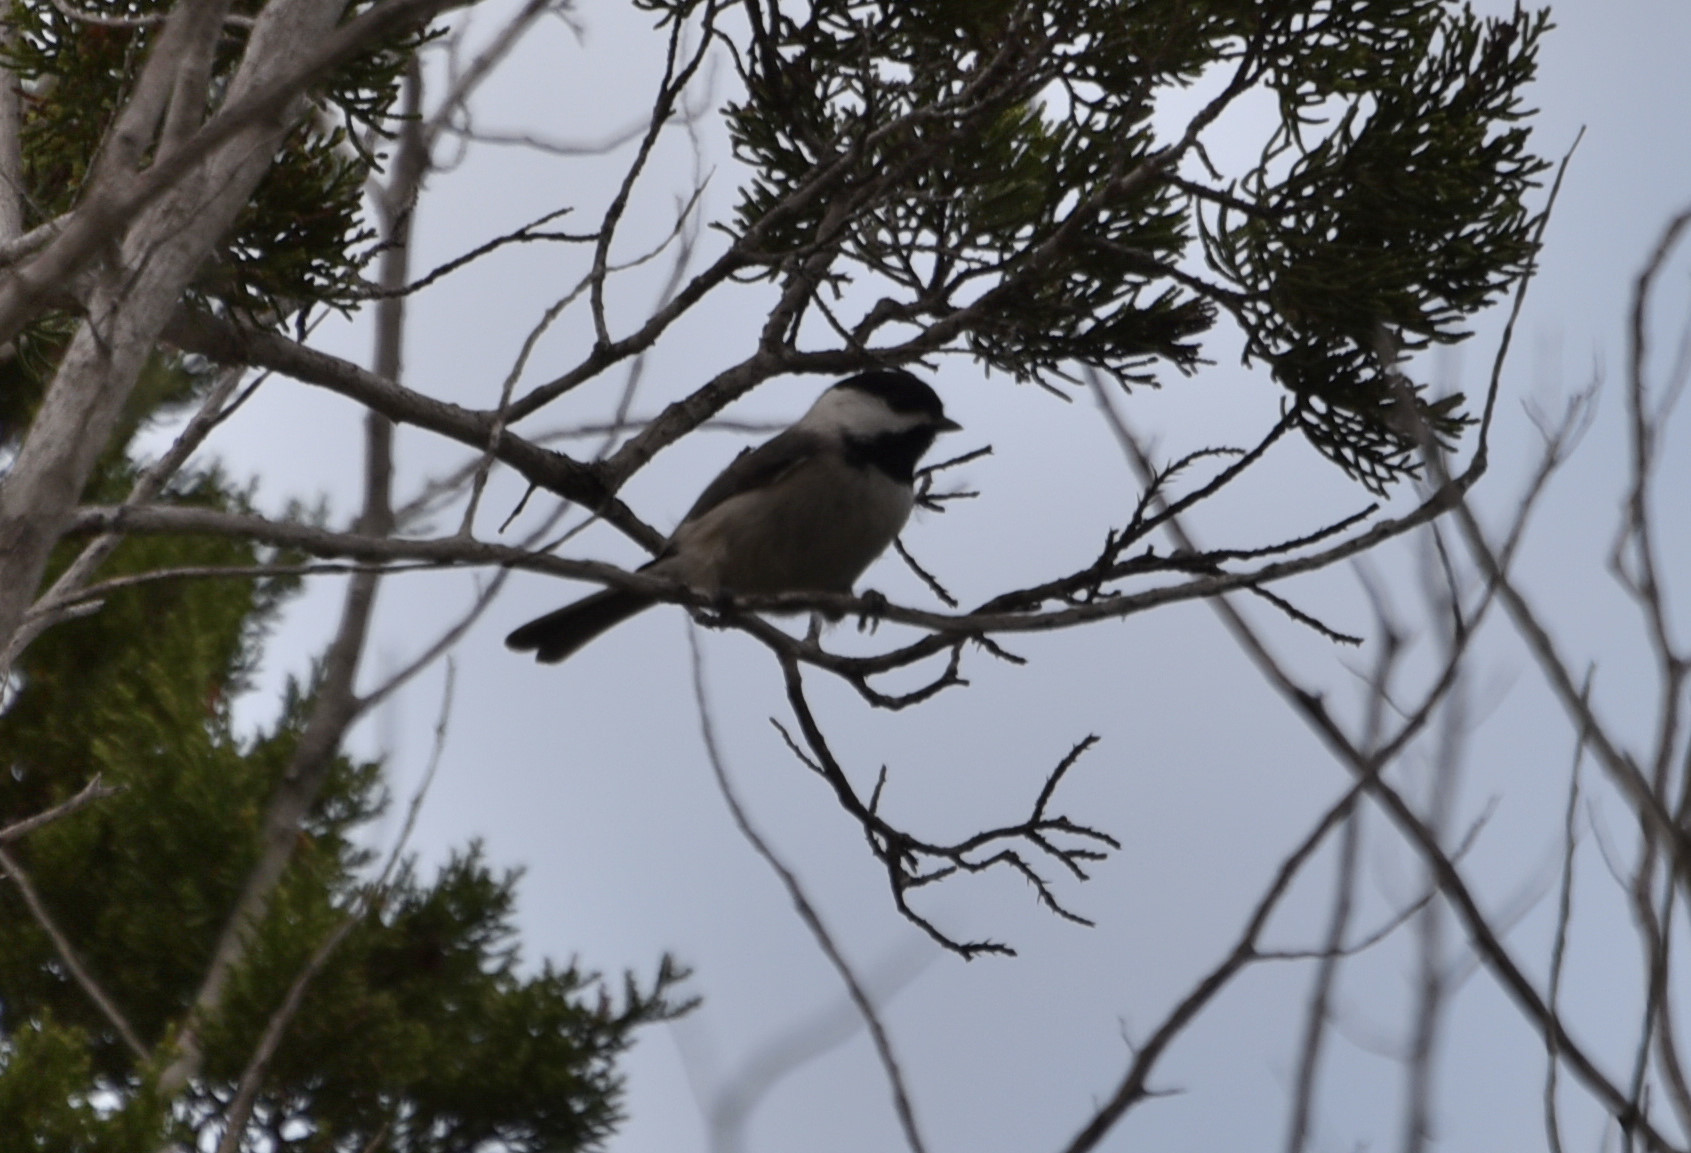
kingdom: Animalia
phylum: Chordata
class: Aves
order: Passeriformes
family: Paridae
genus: Poecile
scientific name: Poecile carolinensis
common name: Carolina chickadee
